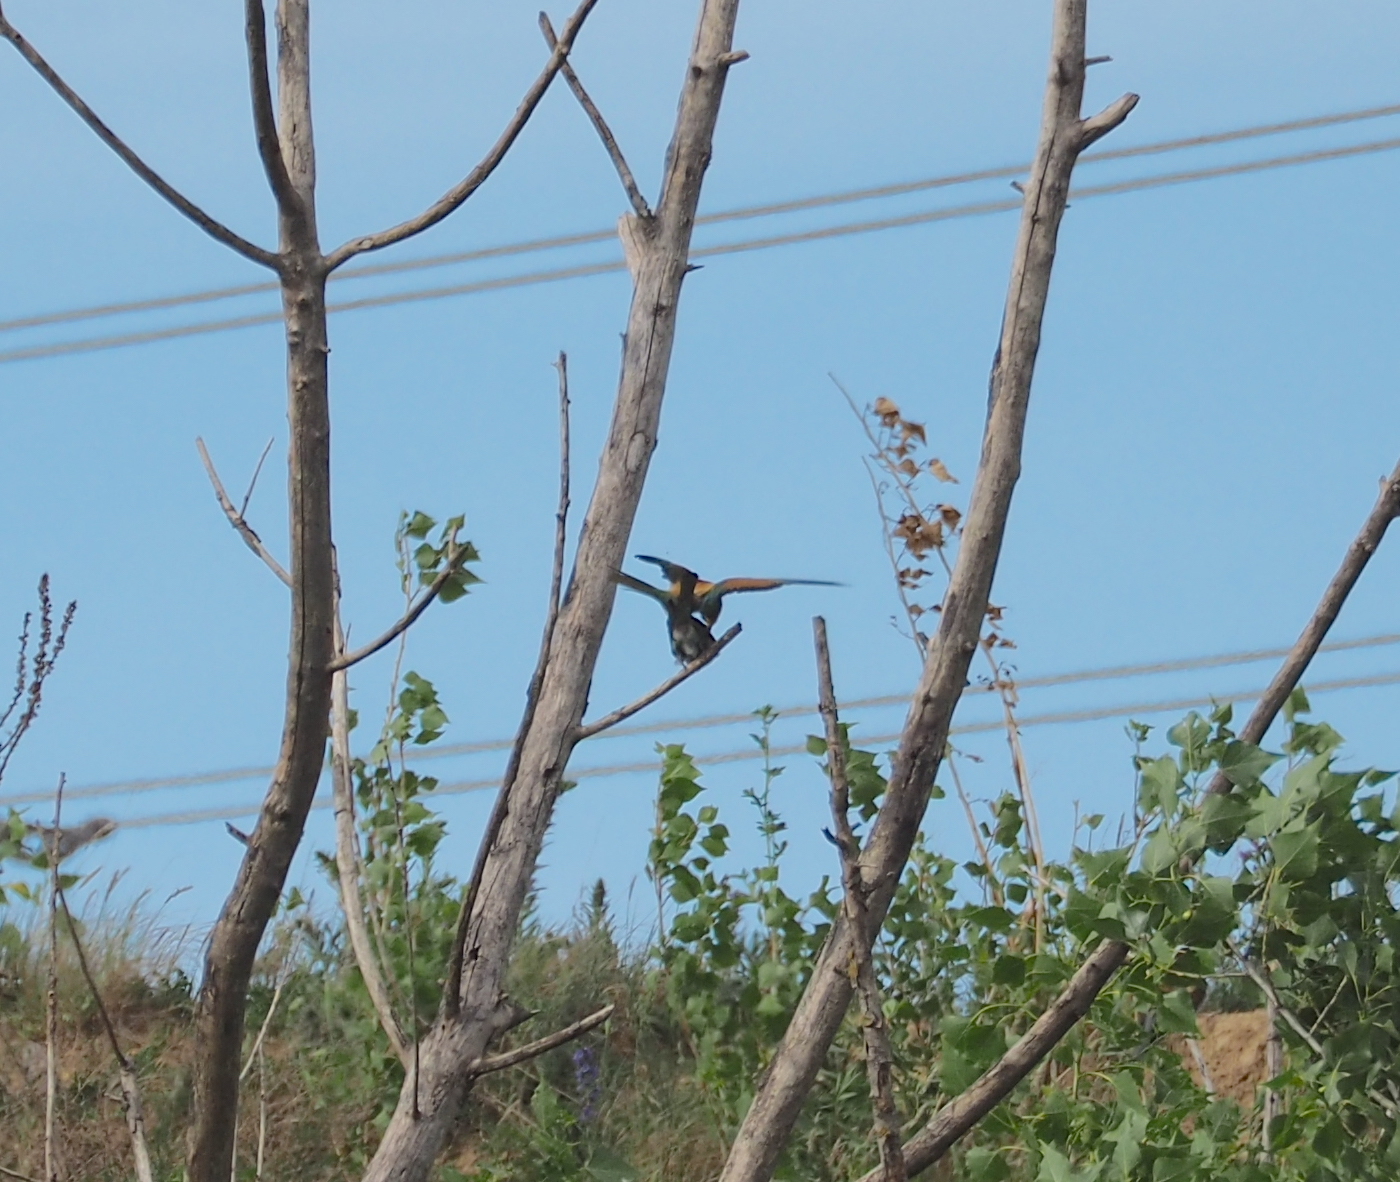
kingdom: Animalia
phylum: Chordata
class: Aves
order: Coraciiformes
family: Meropidae
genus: Merops
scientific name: Merops apiaster
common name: European bee-eater
